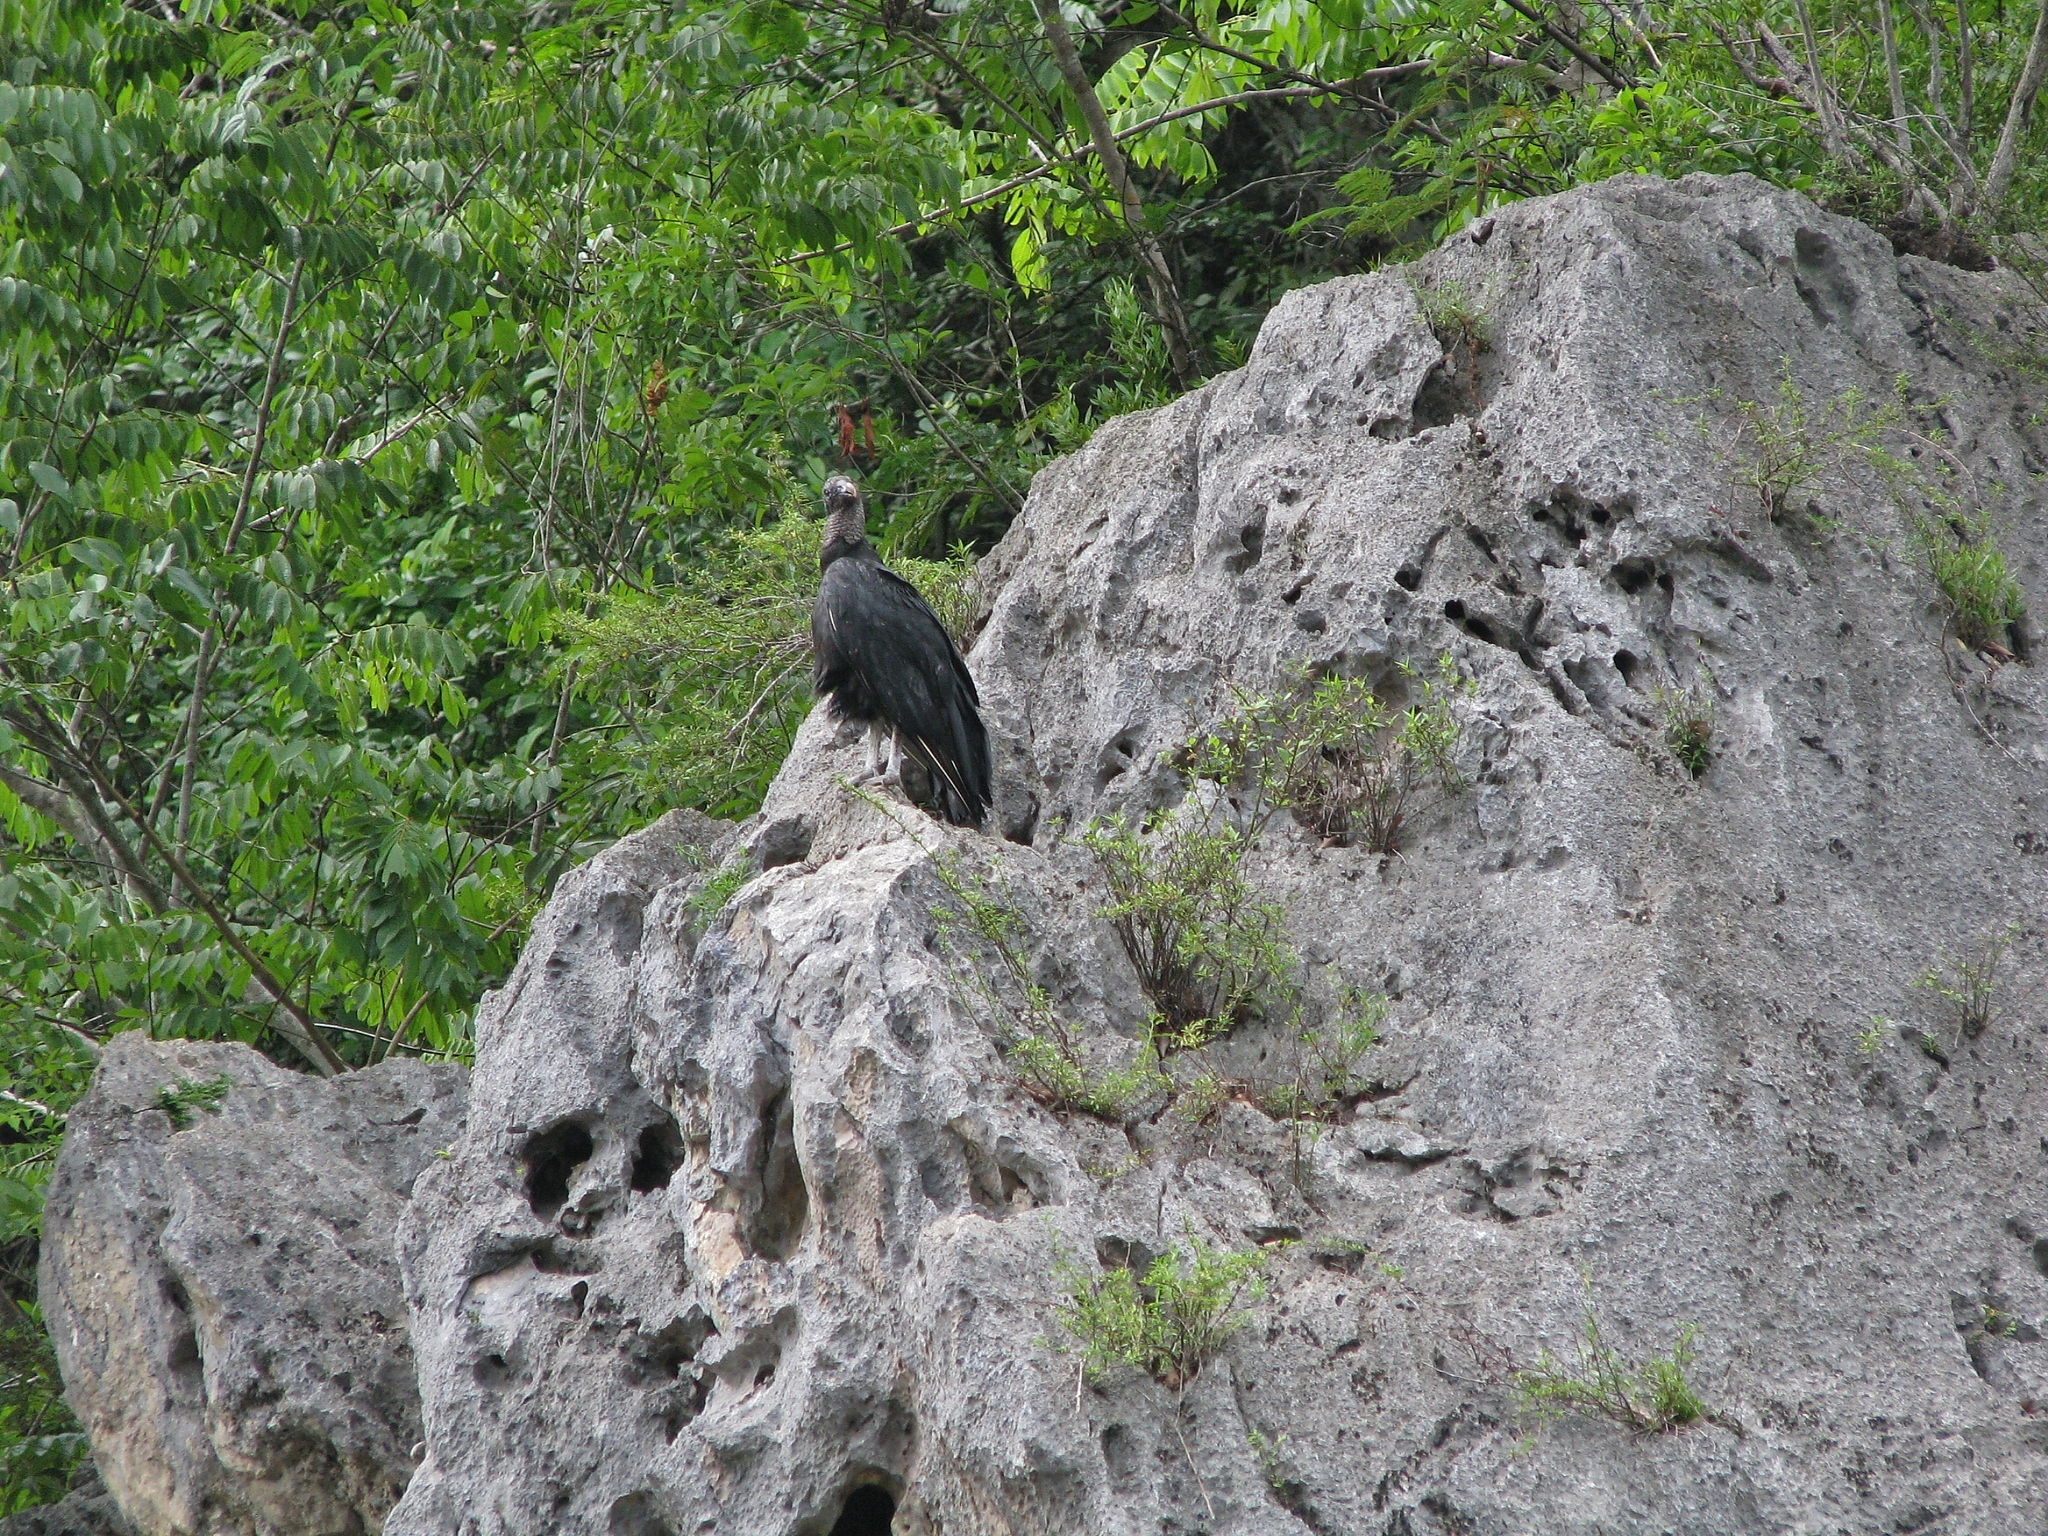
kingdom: Animalia
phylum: Chordata
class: Aves
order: Accipitriformes
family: Cathartidae
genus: Coragyps
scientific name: Coragyps atratus
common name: Black vulture
